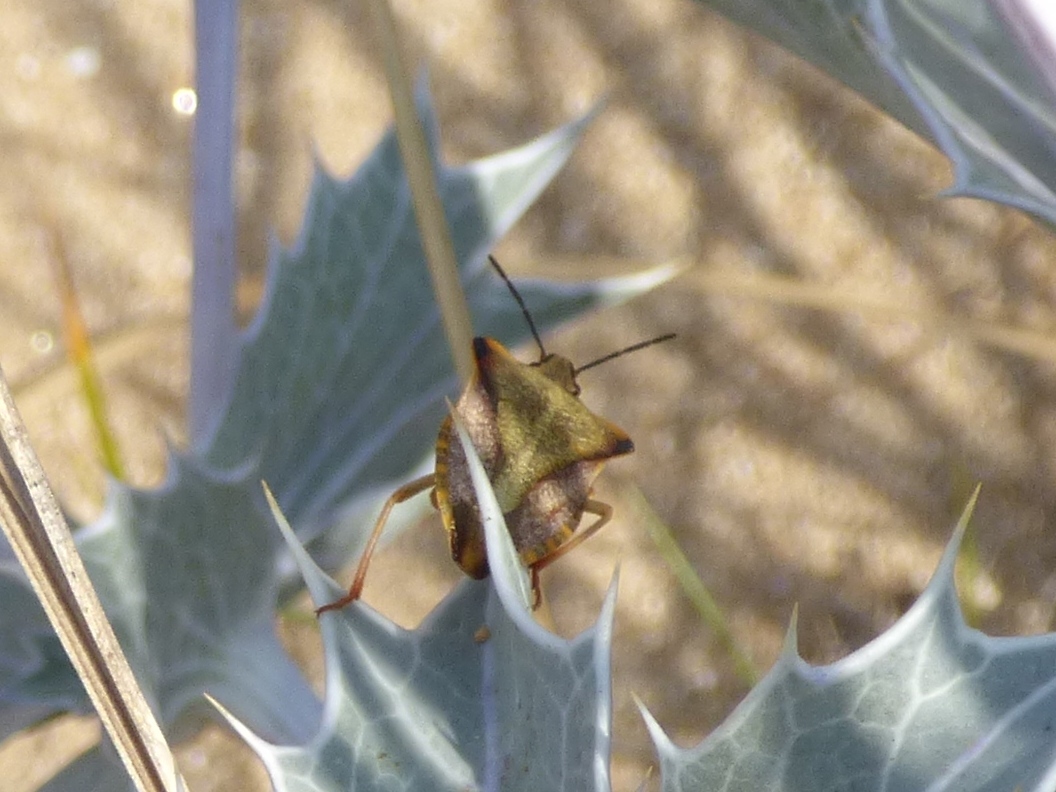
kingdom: Animalia
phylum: Arthropoda
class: Insecta
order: Hemiptera
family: Pentatomidae
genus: Carpocoris
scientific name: Carpocoris mediterraneus
